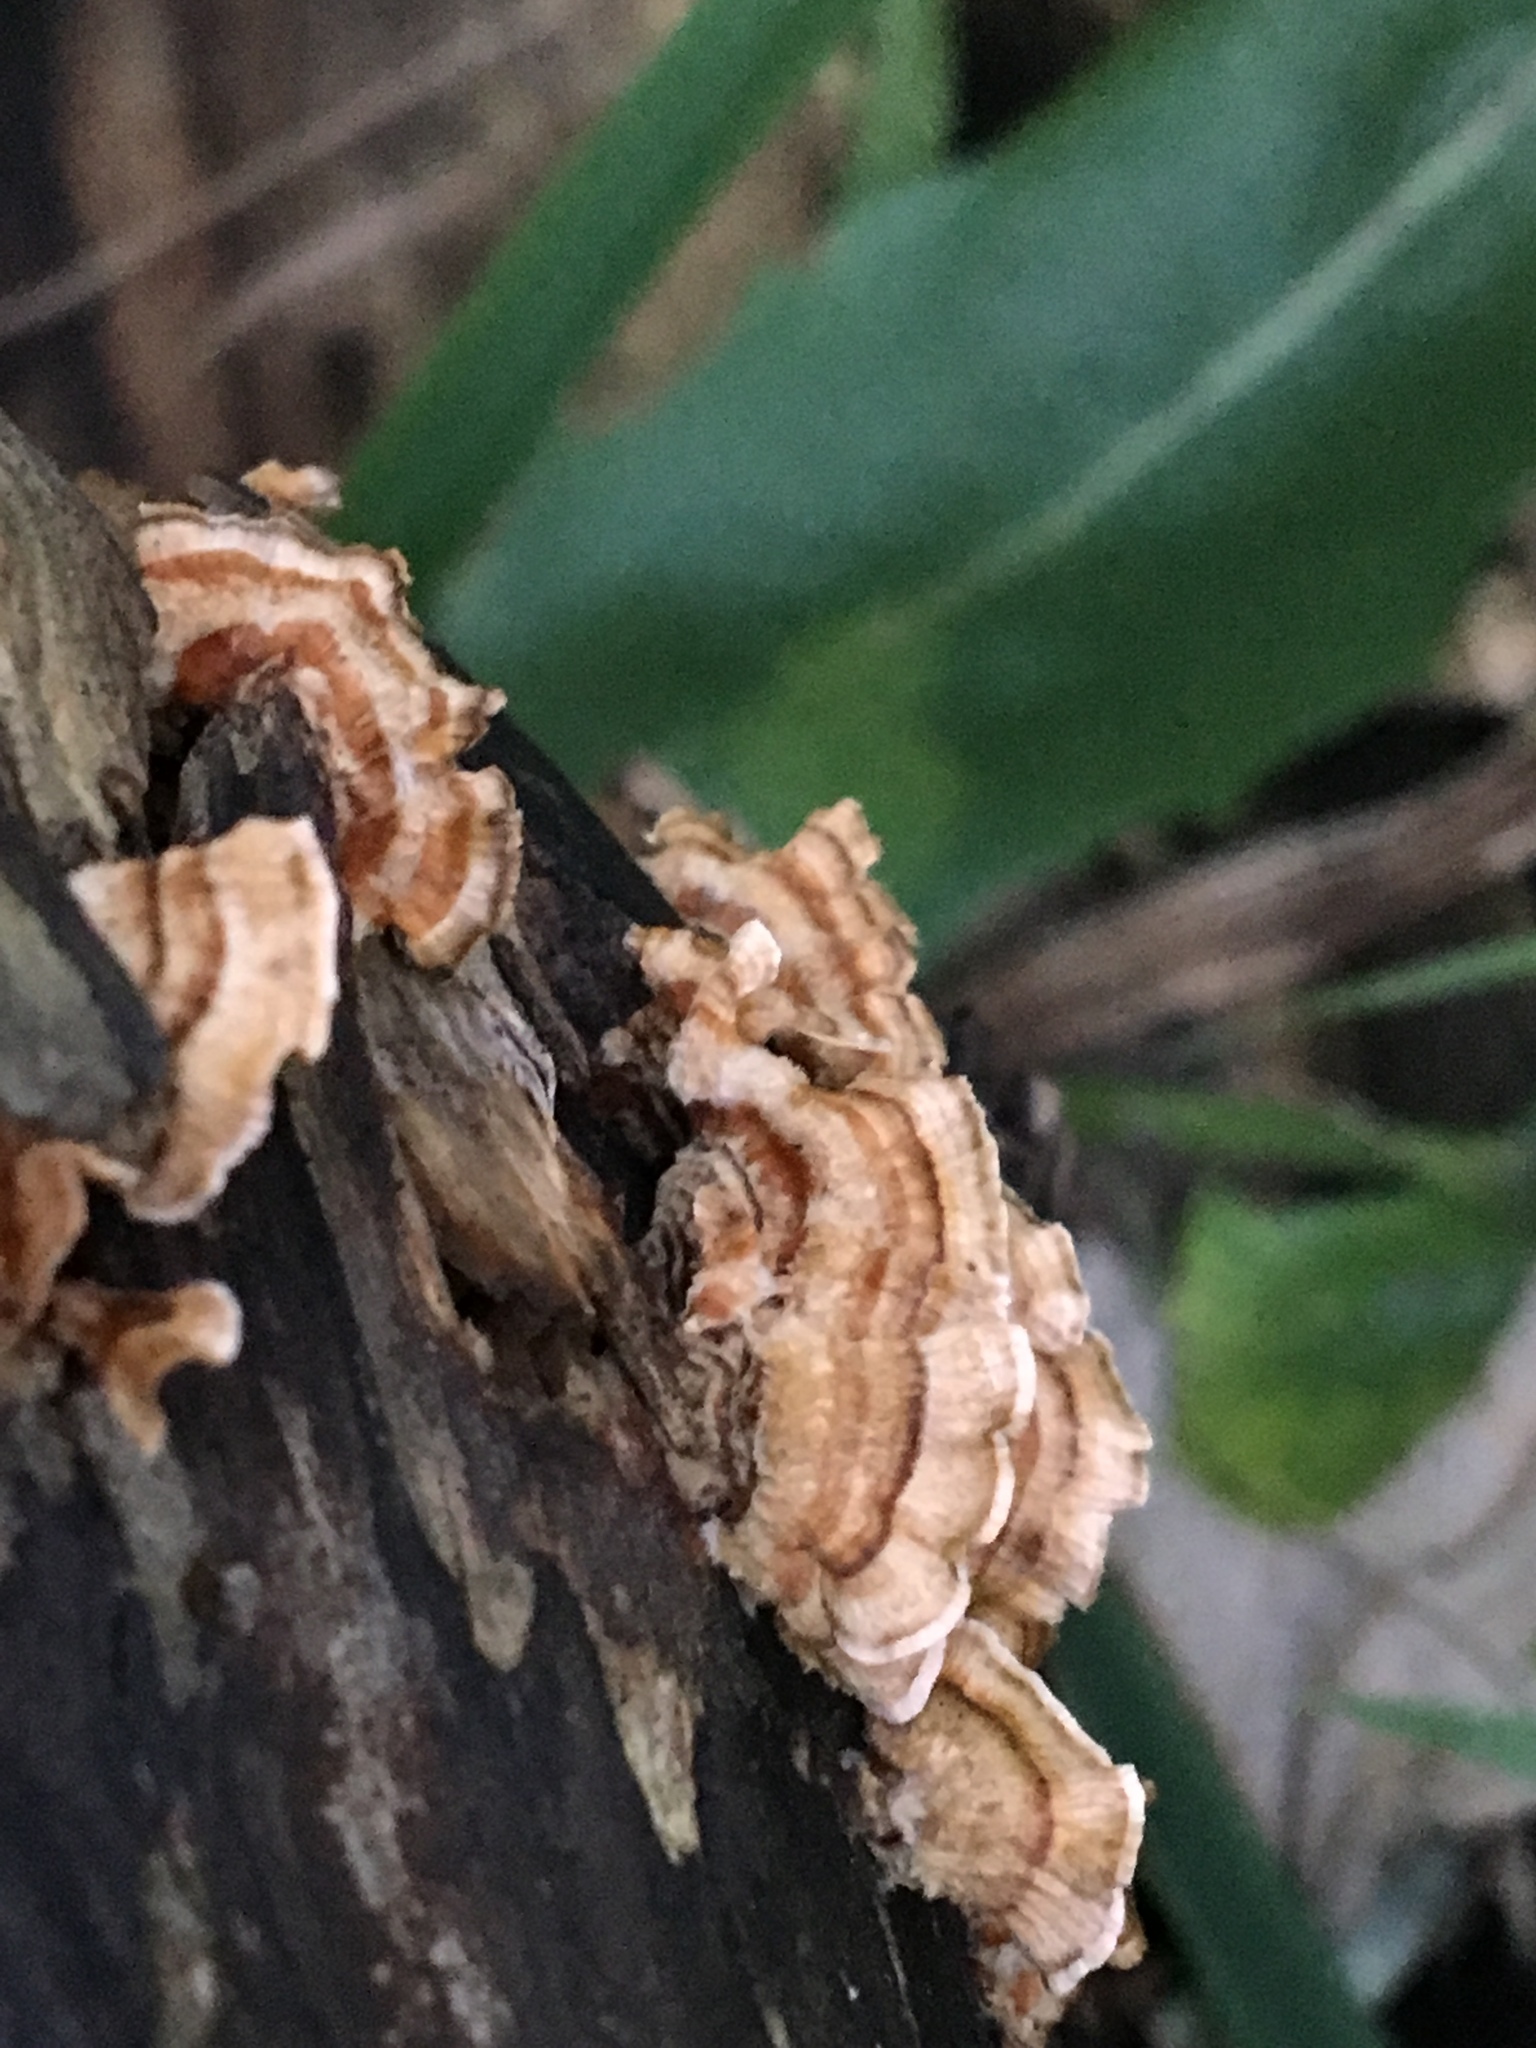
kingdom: Fungi
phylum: Basidiomycota
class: Agaricomycetes
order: Polyporales
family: Polyporaceae
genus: Trametes
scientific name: Trametes versicolor
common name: Turkeytail
